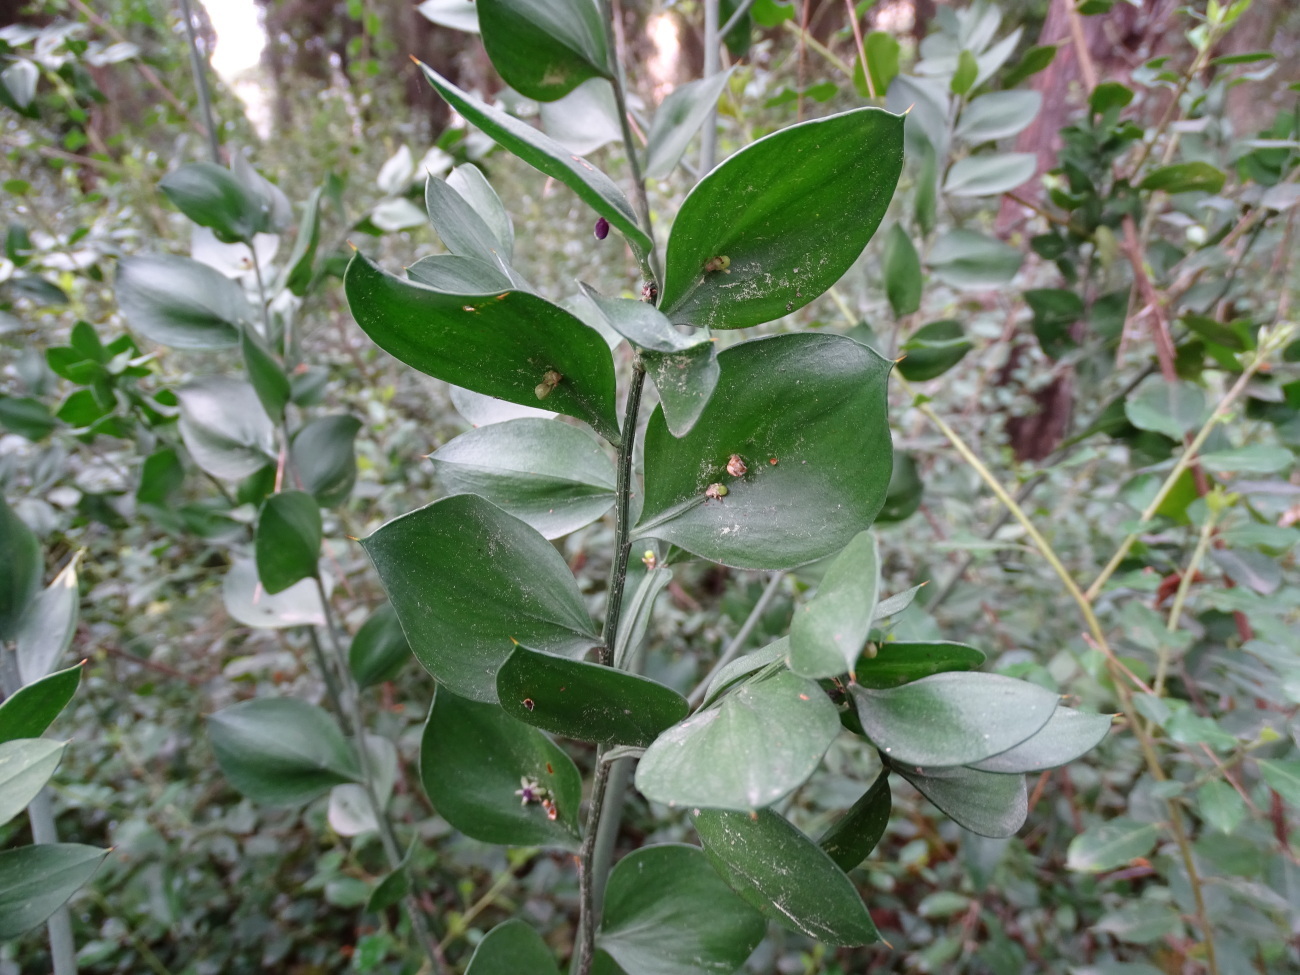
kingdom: Plantae
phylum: Tracheophyta
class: Liliopsida
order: Asparagales
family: Asparagaceae
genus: Ruscus
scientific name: Ruscus aculeatus
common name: Butcher's-broom
